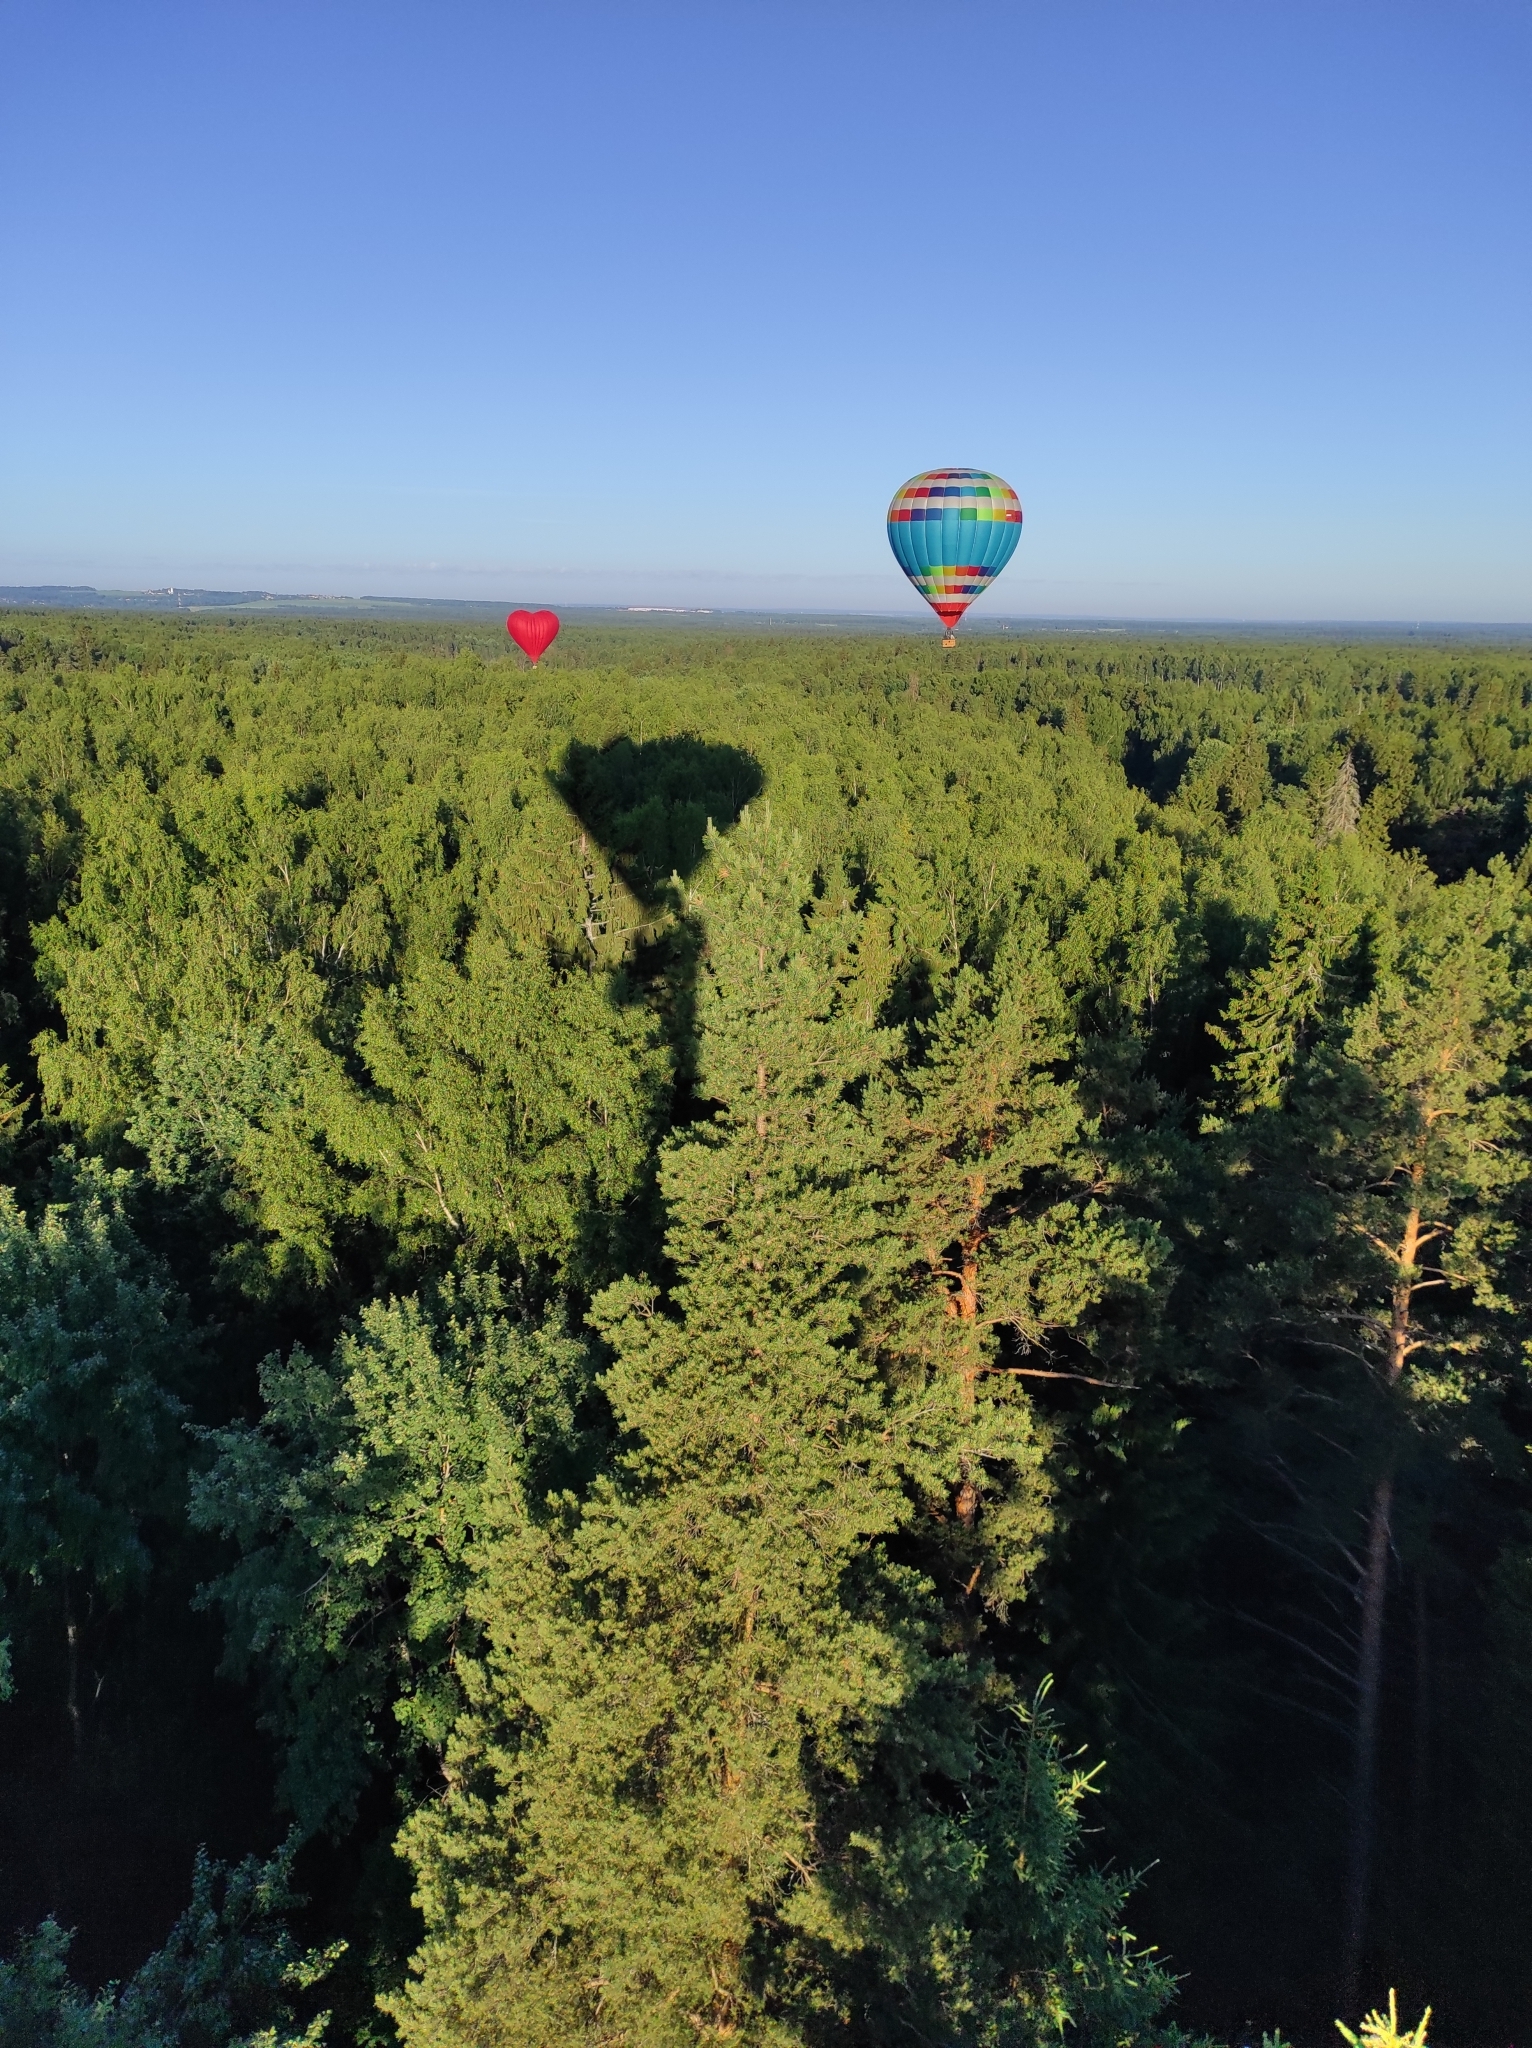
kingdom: Plantae
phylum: Tracheophyta
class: Pinopsida
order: Pinales
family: Pinaceae
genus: Pinus
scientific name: Pinus sylvestris
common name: Scots pine
